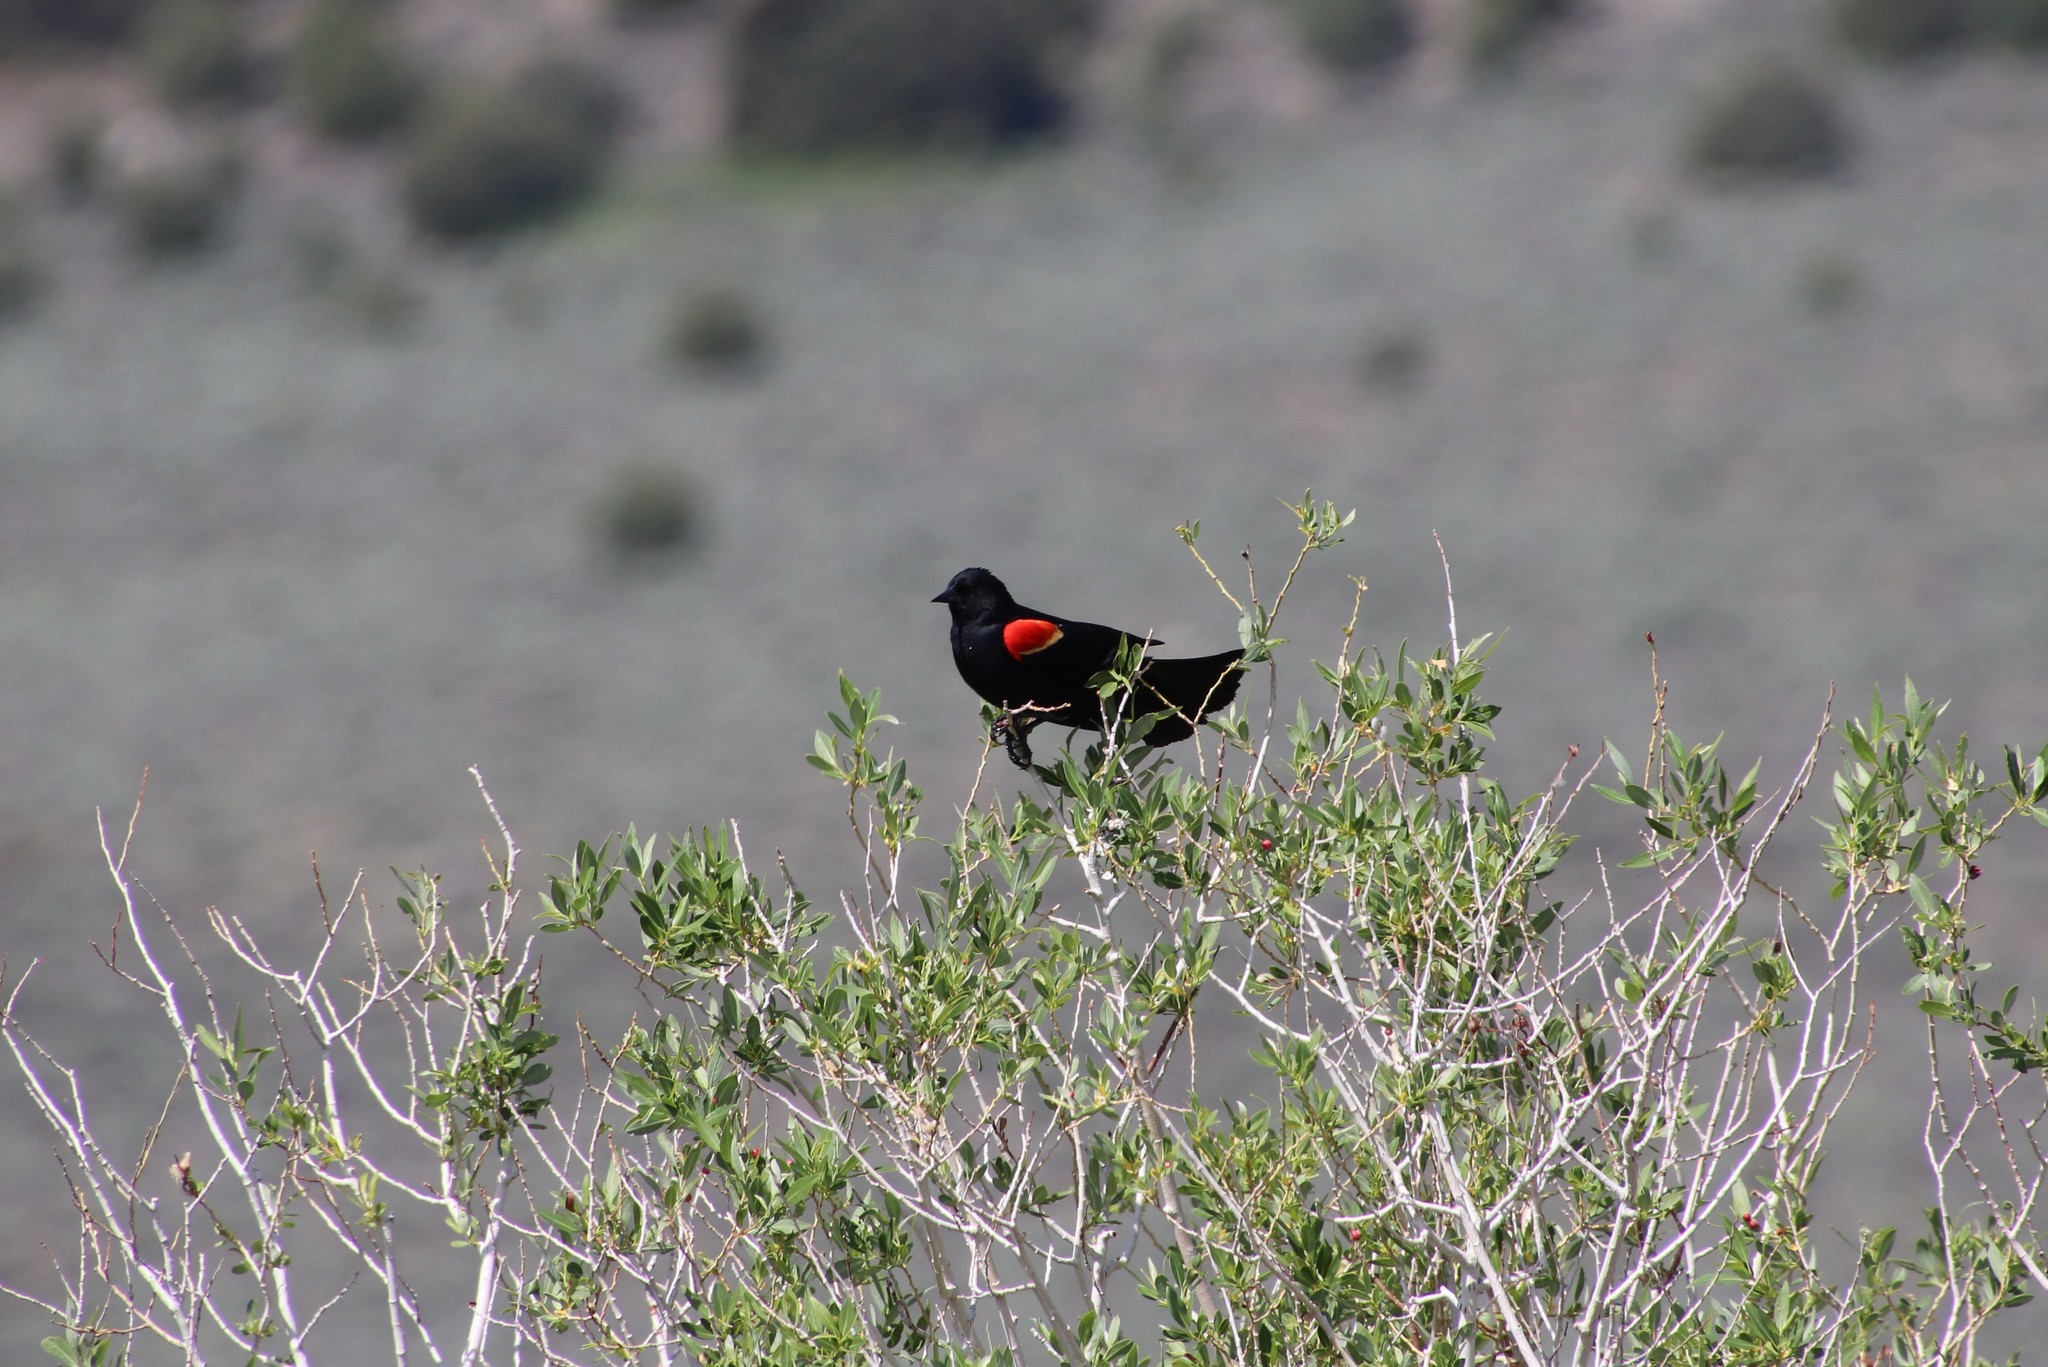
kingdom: Animalia
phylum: Chordata
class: Aves
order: Passeriformes
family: Icteridae
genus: Agelaius
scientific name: Agelaius phoeniceus
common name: Red-winged blackbird
